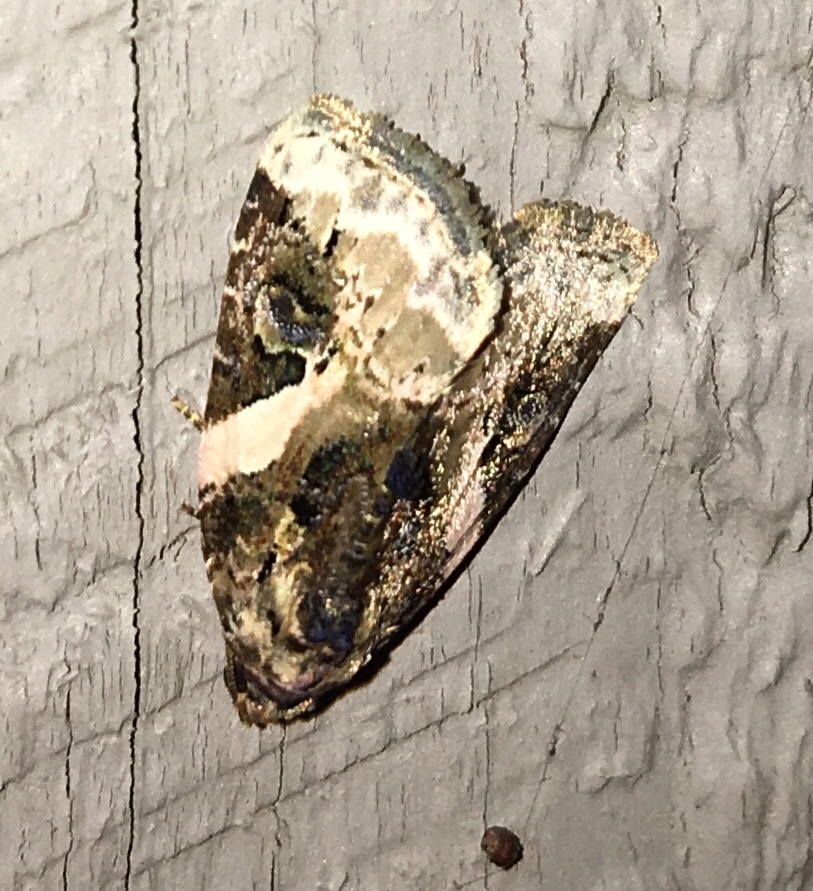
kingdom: Animalia
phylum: Arthropoda
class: Insecta
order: Lepidoptera
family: Noctuidae
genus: Pseudeustrotia
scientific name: Pseudeustrotia carneola
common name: Pink-barred lithacodia moth
